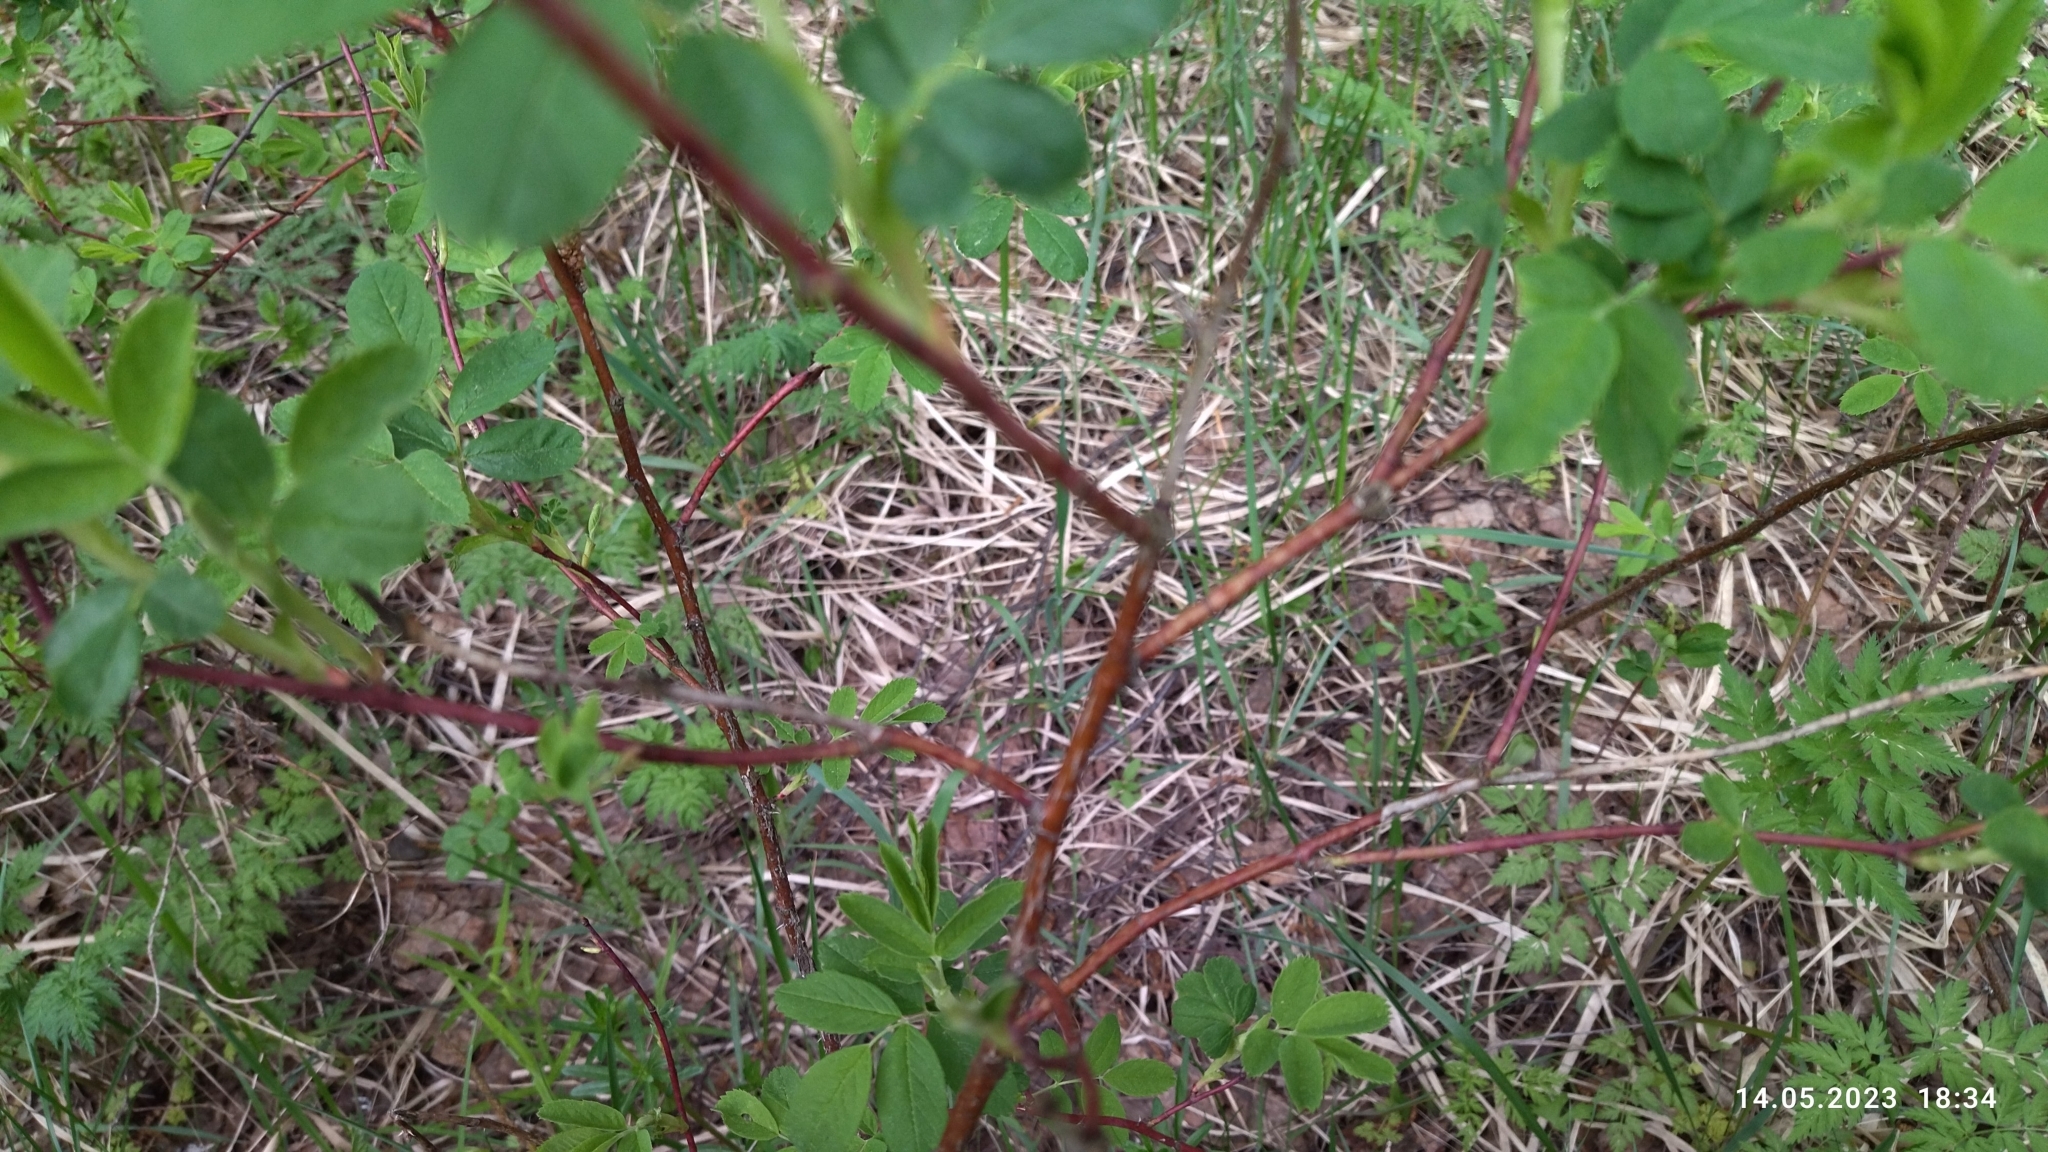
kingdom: Plantae
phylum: Tracheophyta
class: Magnoliopsida
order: Rosales
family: Rosaceae
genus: Rosa
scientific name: Rosa majalis
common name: Cinnamon rose
